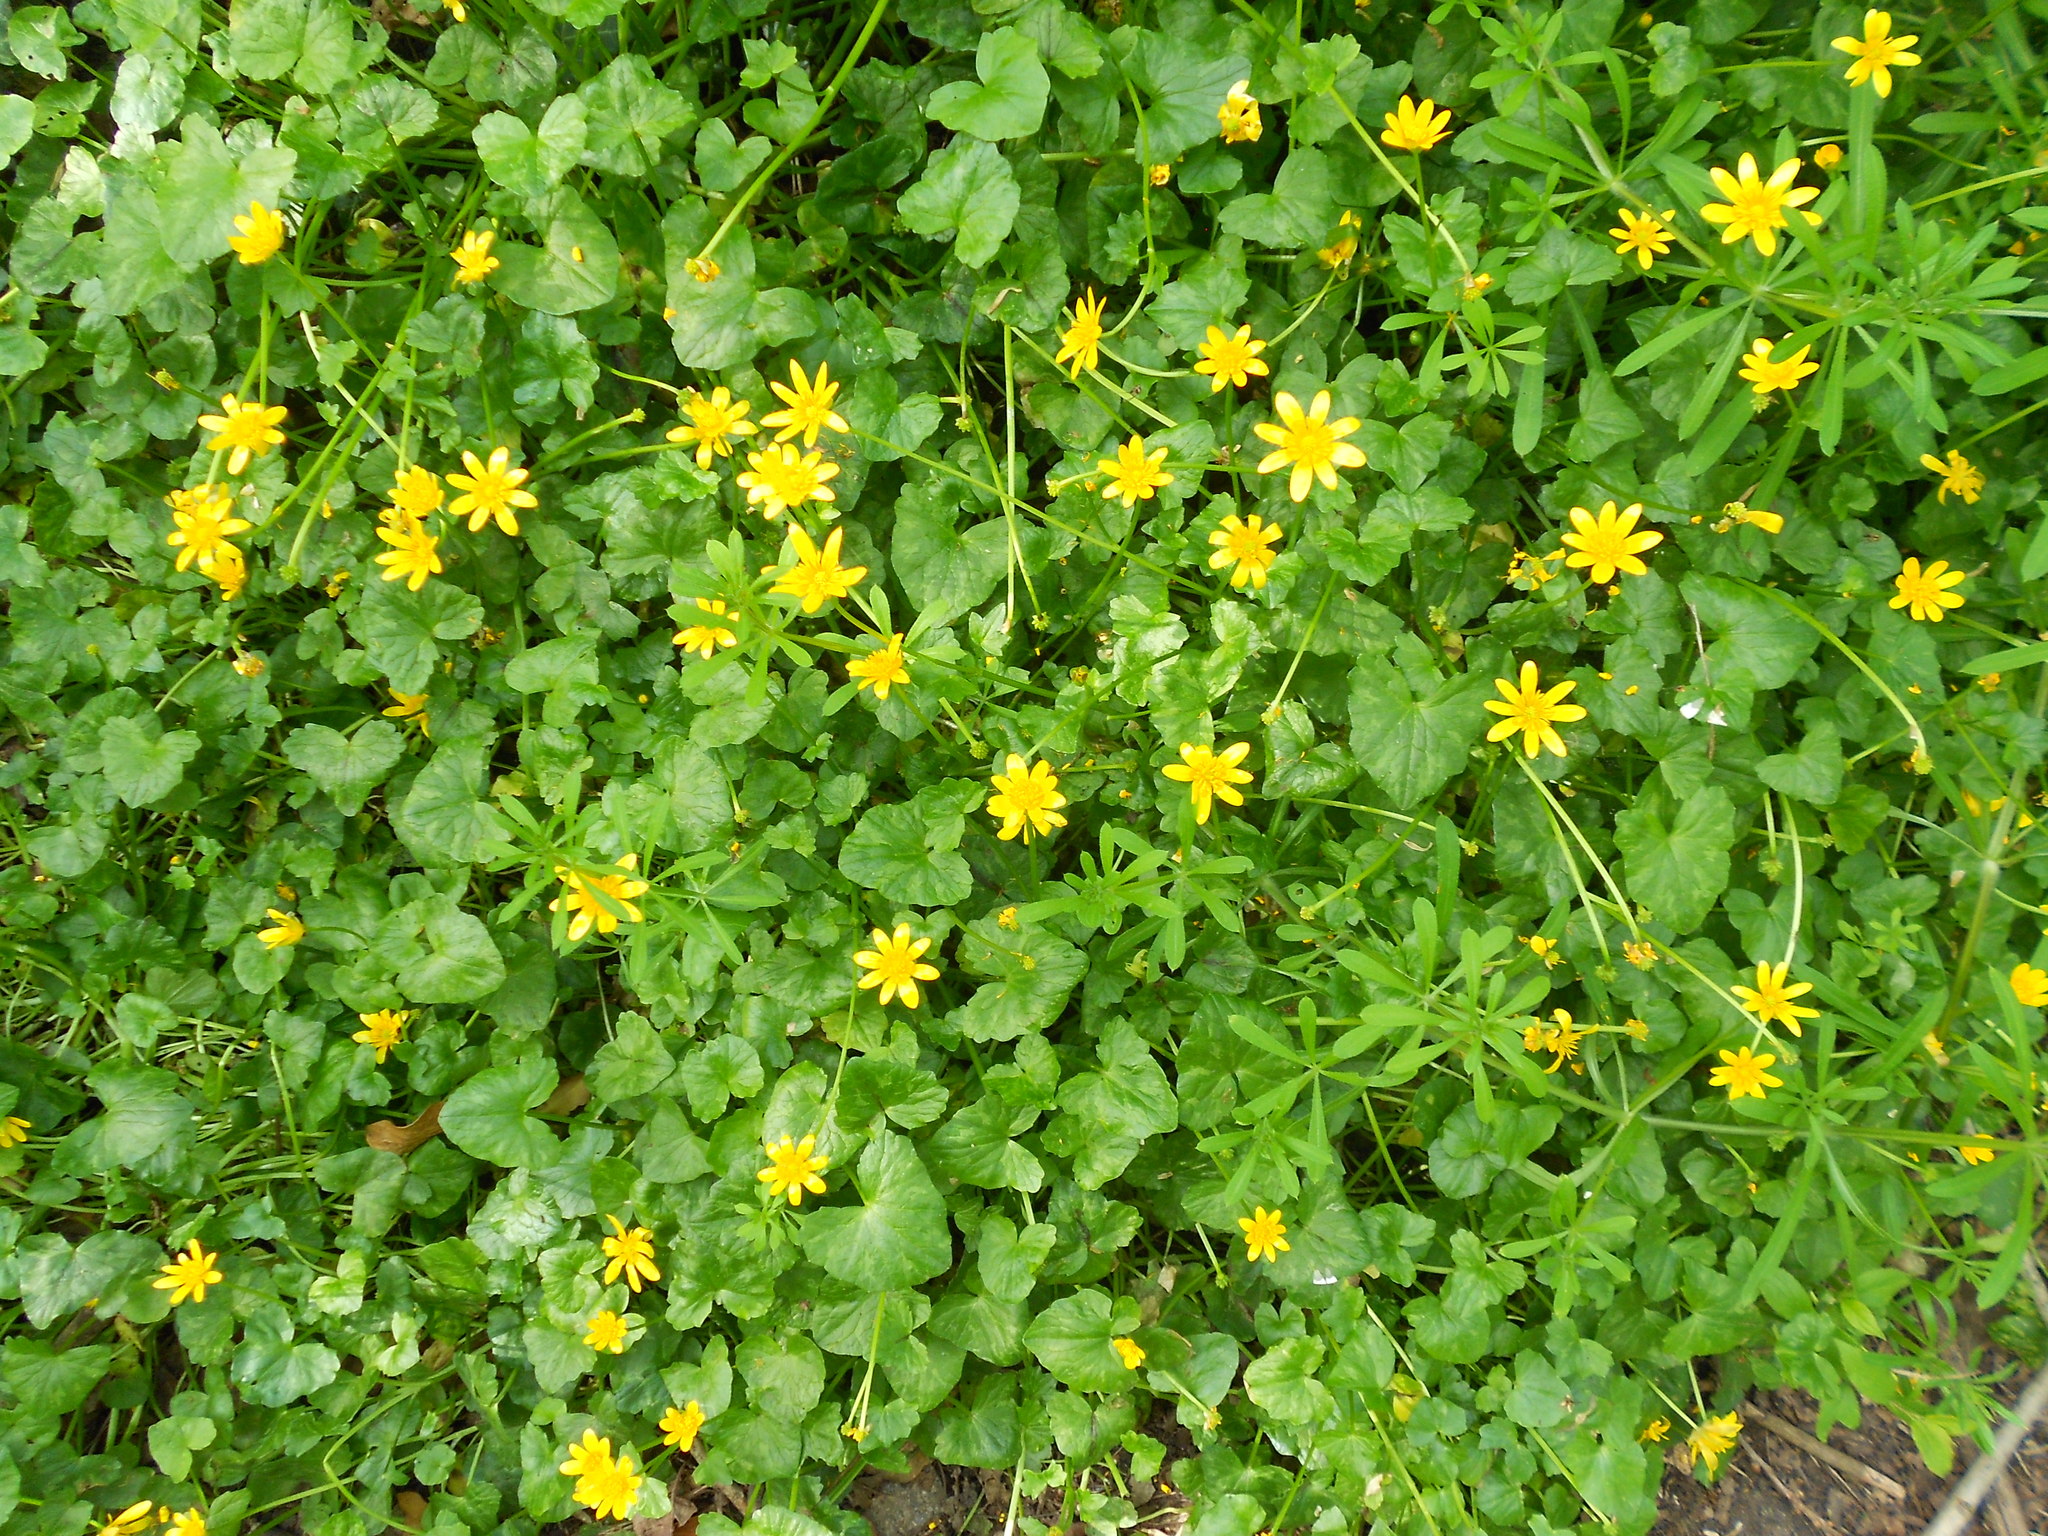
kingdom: Plantae
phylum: Tracheophyta
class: Magnoliopsida
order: Ranunculales
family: Ranunculaceae
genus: Ficaria
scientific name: Ficaria verna
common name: Lesser celandine
